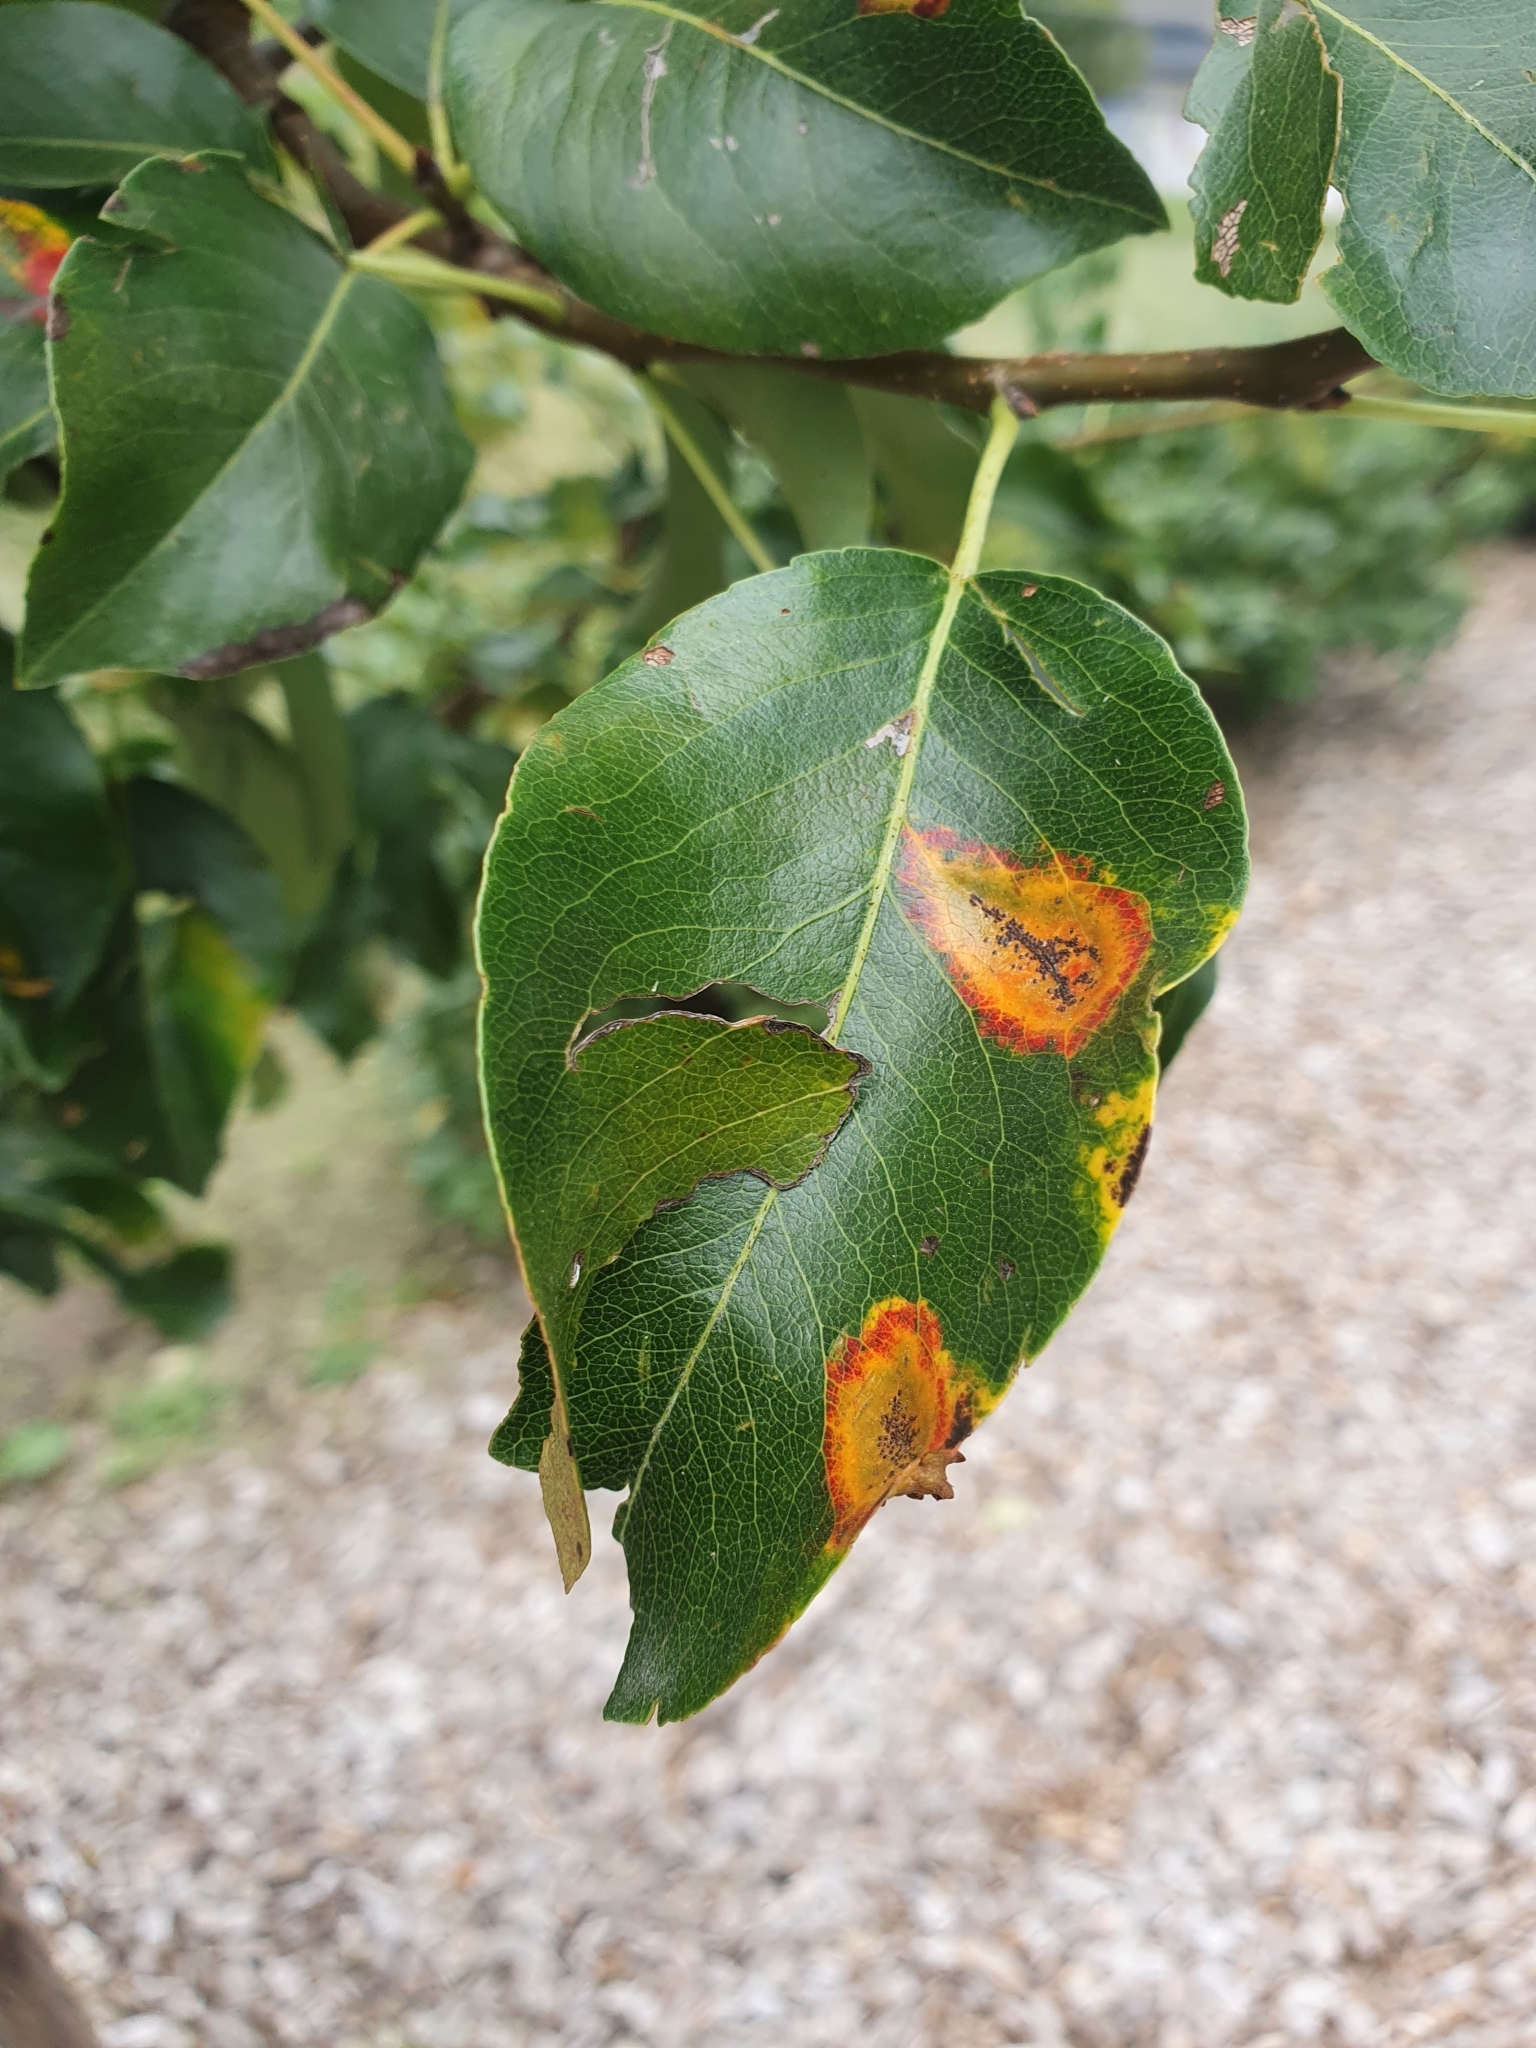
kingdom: Fungi
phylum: Basidiomycota
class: Pucciniomycetes
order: Pucciniales
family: Gymnosporangiaceae
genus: Gymnosporangium
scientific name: Gymnosporangium sabinae
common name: Pear trellis rust fungus
